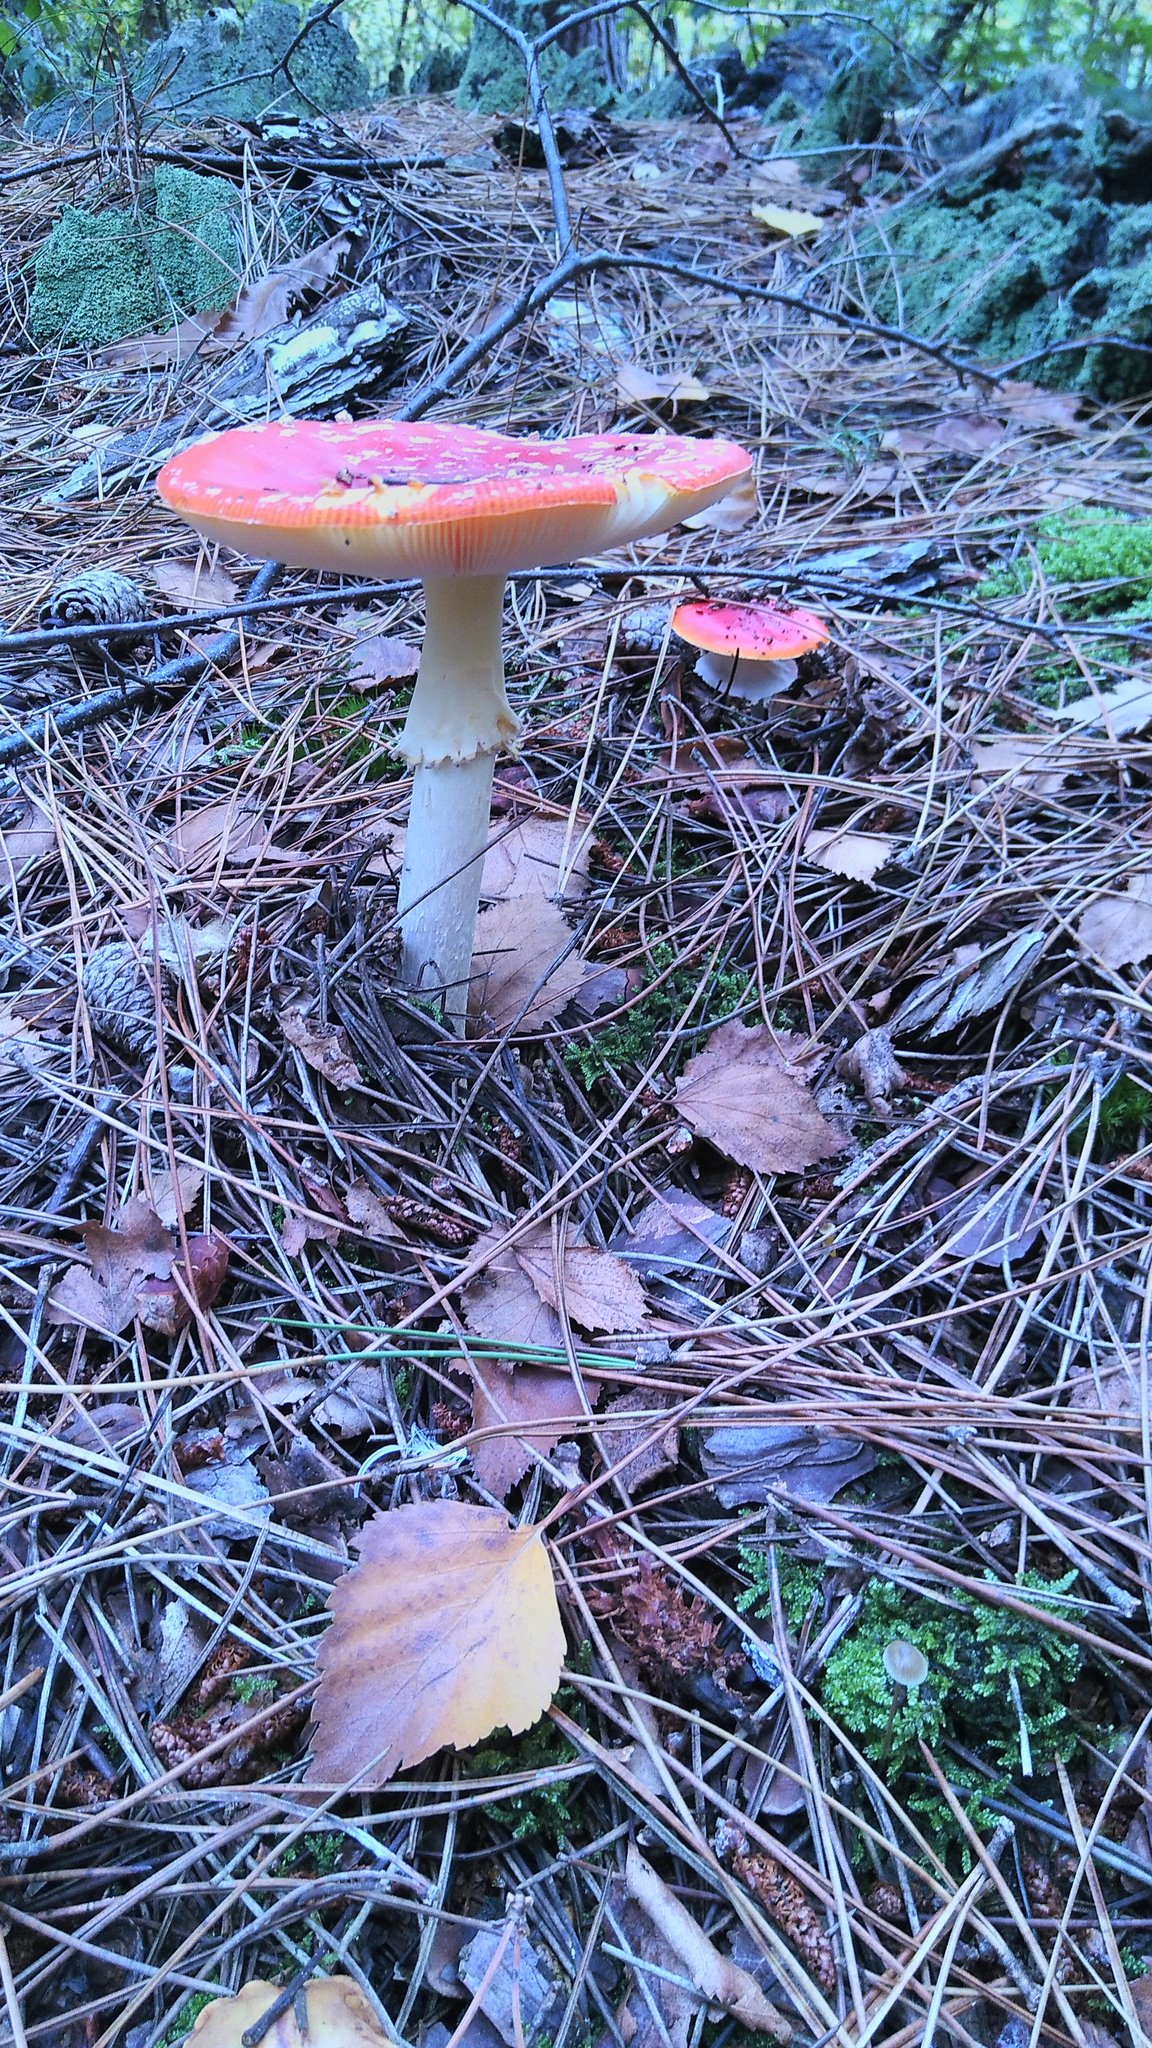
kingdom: Fungi
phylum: Basidiomycota
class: Agaricomycetes
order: Agaricales
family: Amanitaceae
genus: Amanita
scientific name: Amanita muscaria
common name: Fly agaric
